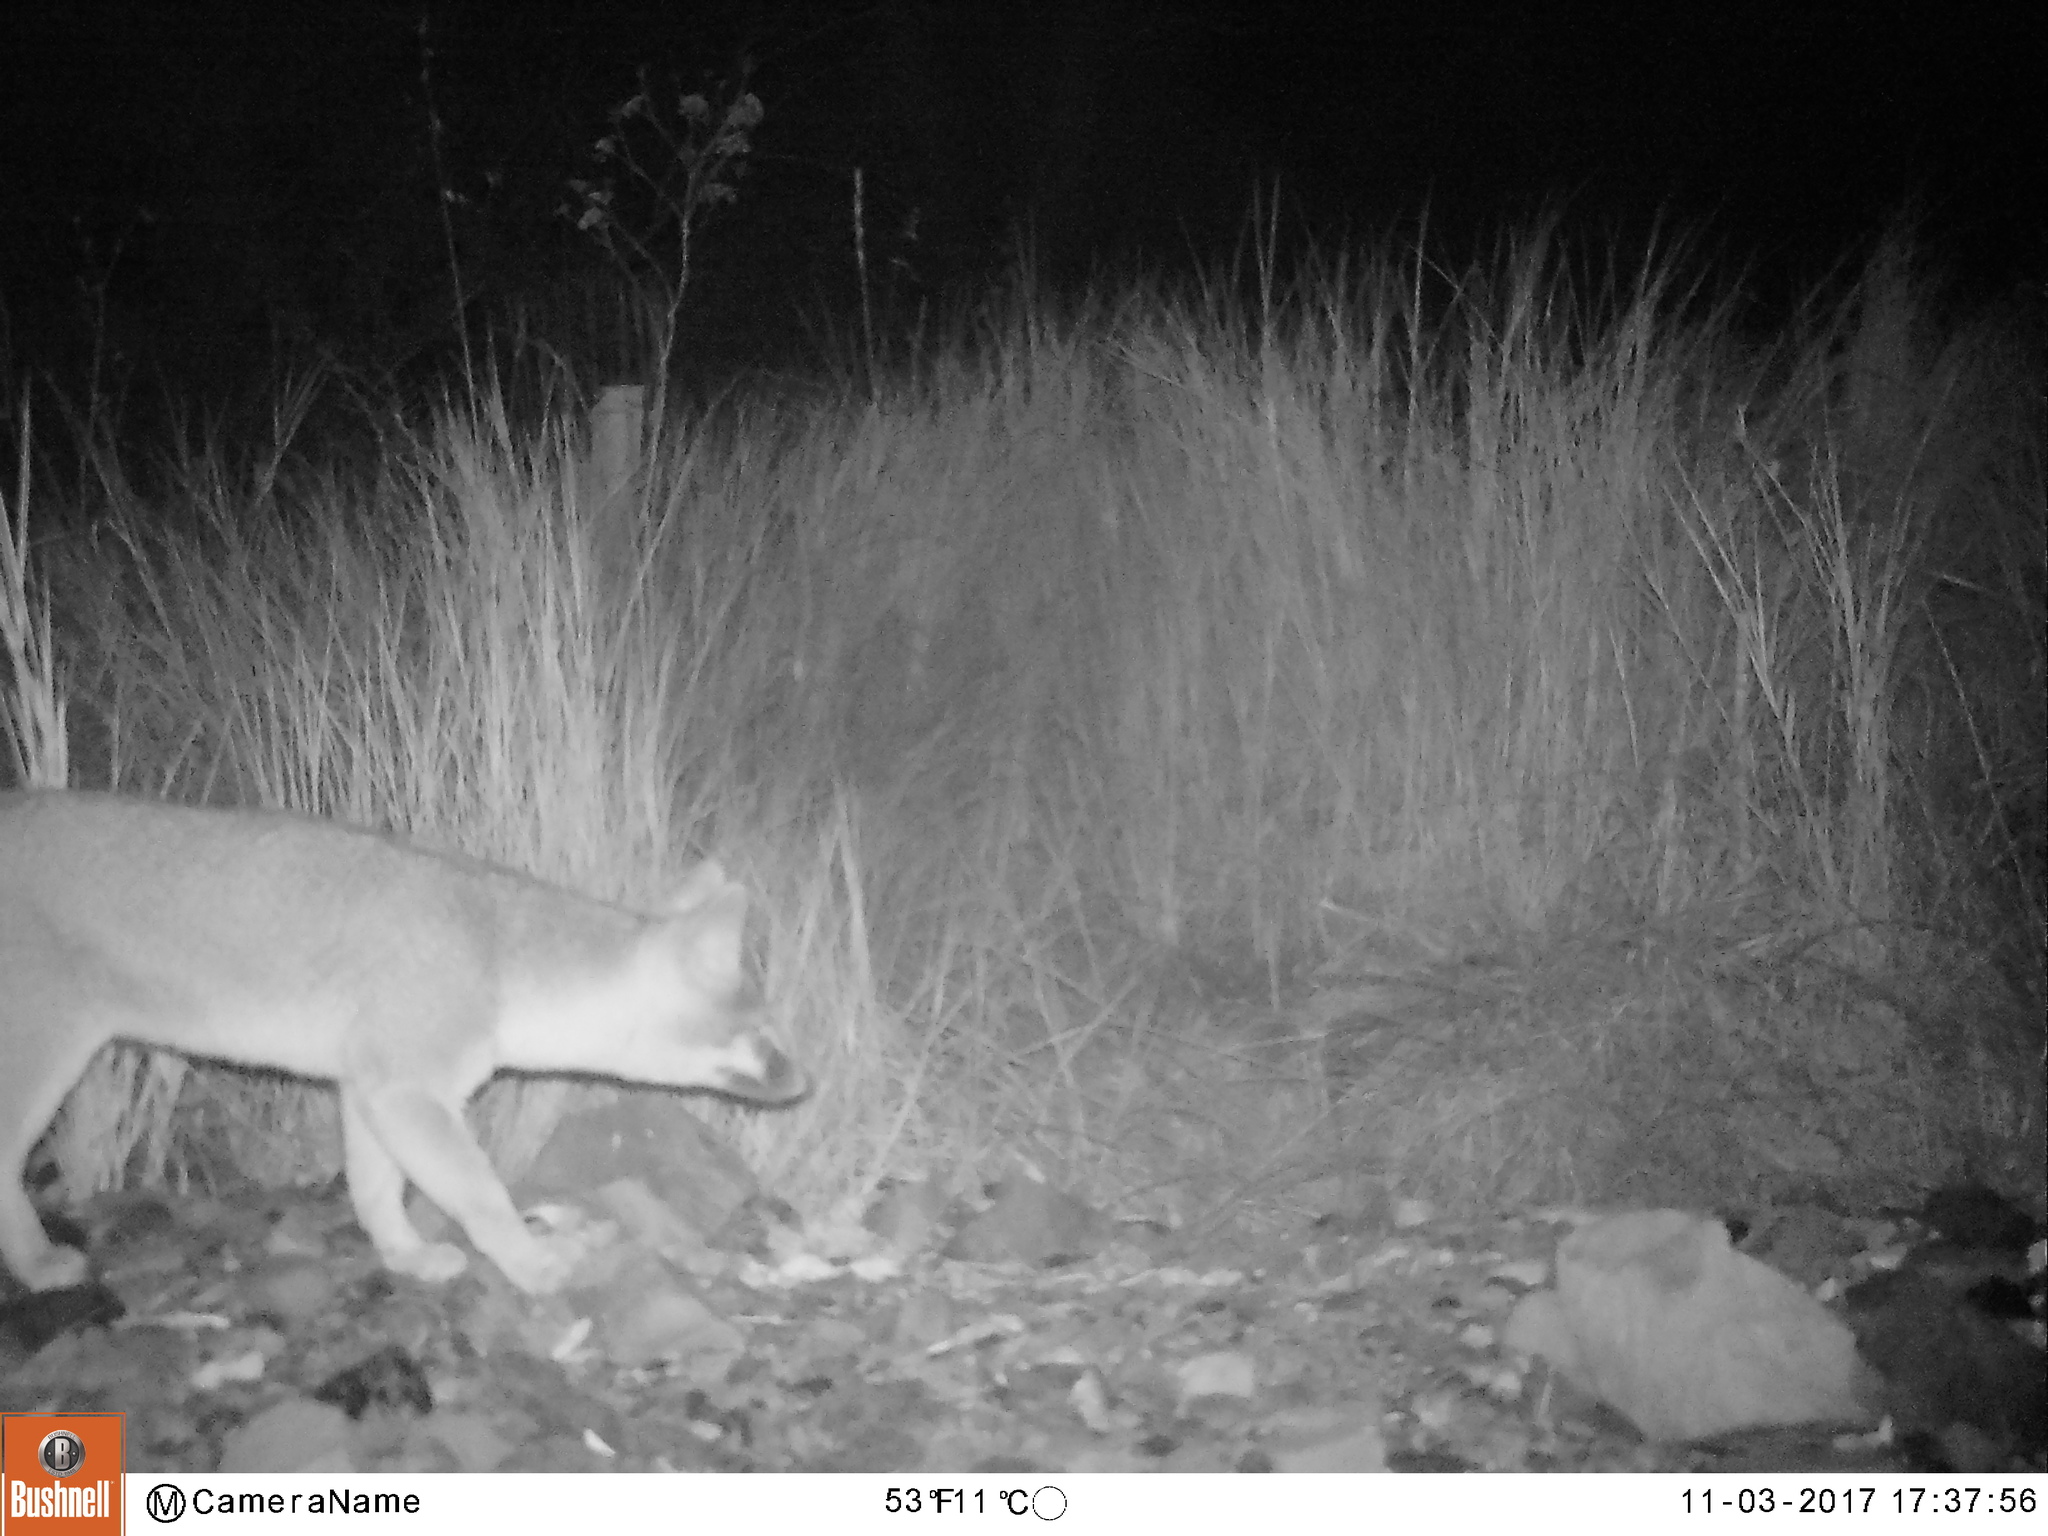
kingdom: Animalia
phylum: Chordata
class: Mammalia
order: Carnivora
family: Canidae
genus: Urocyon
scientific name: Urocyon cinereoargenteus
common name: Gray fox
